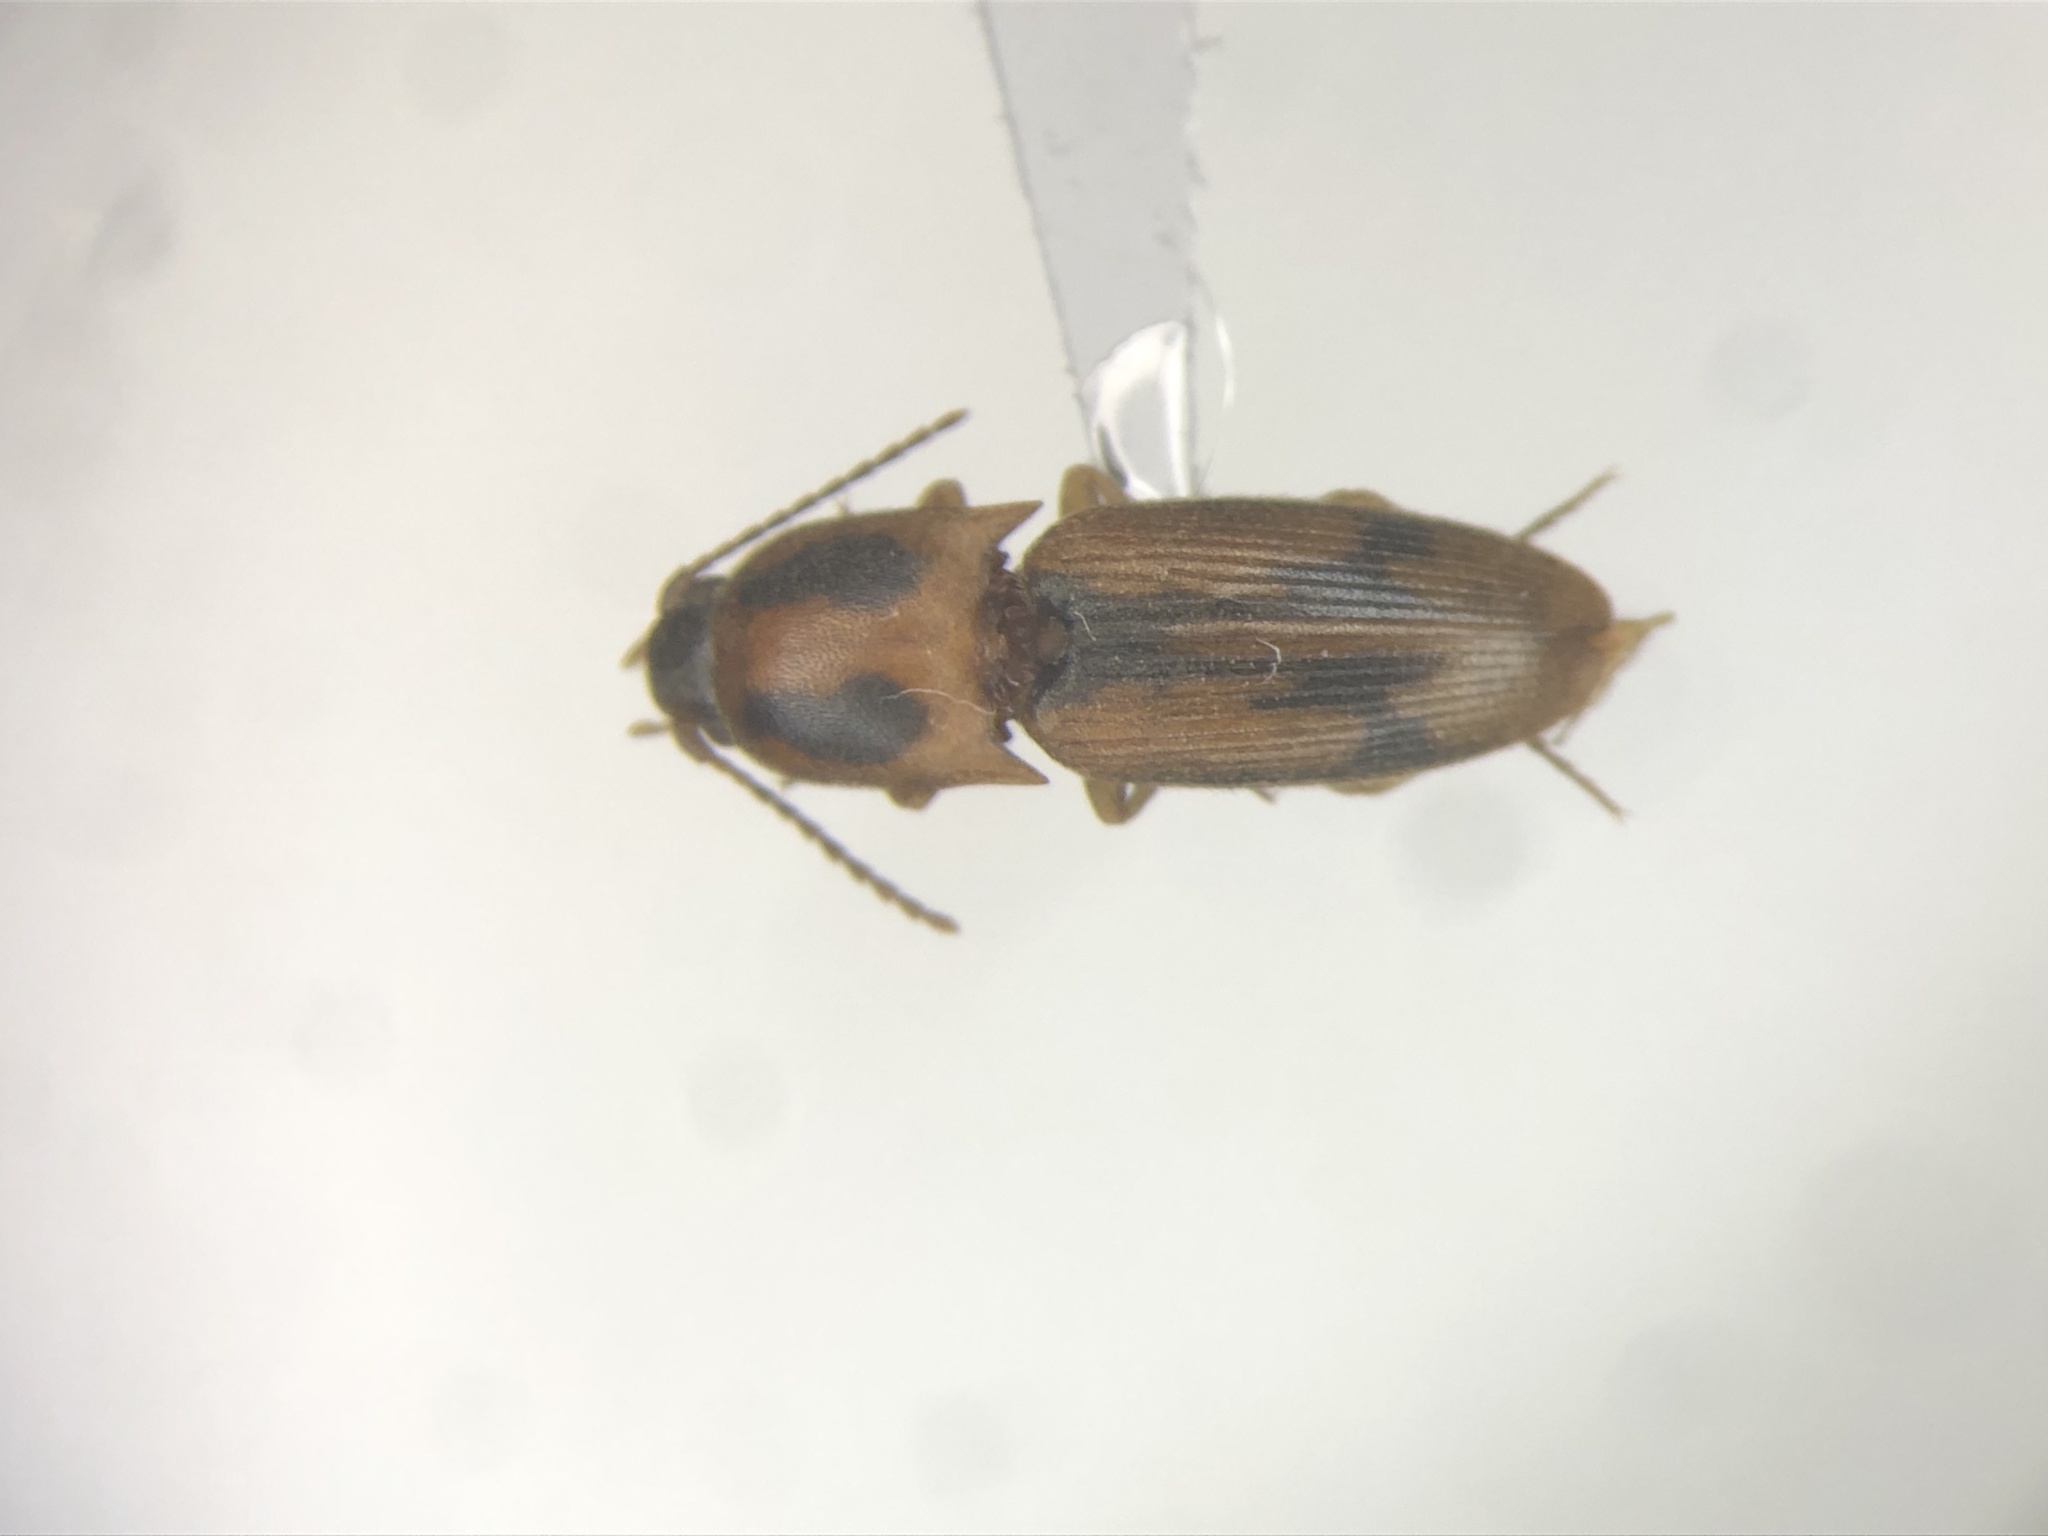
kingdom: Animalia
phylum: Arthropoda
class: Insecta
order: Coleoptera
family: Elateridae
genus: Monocrepidius
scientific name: Monocrepidius
